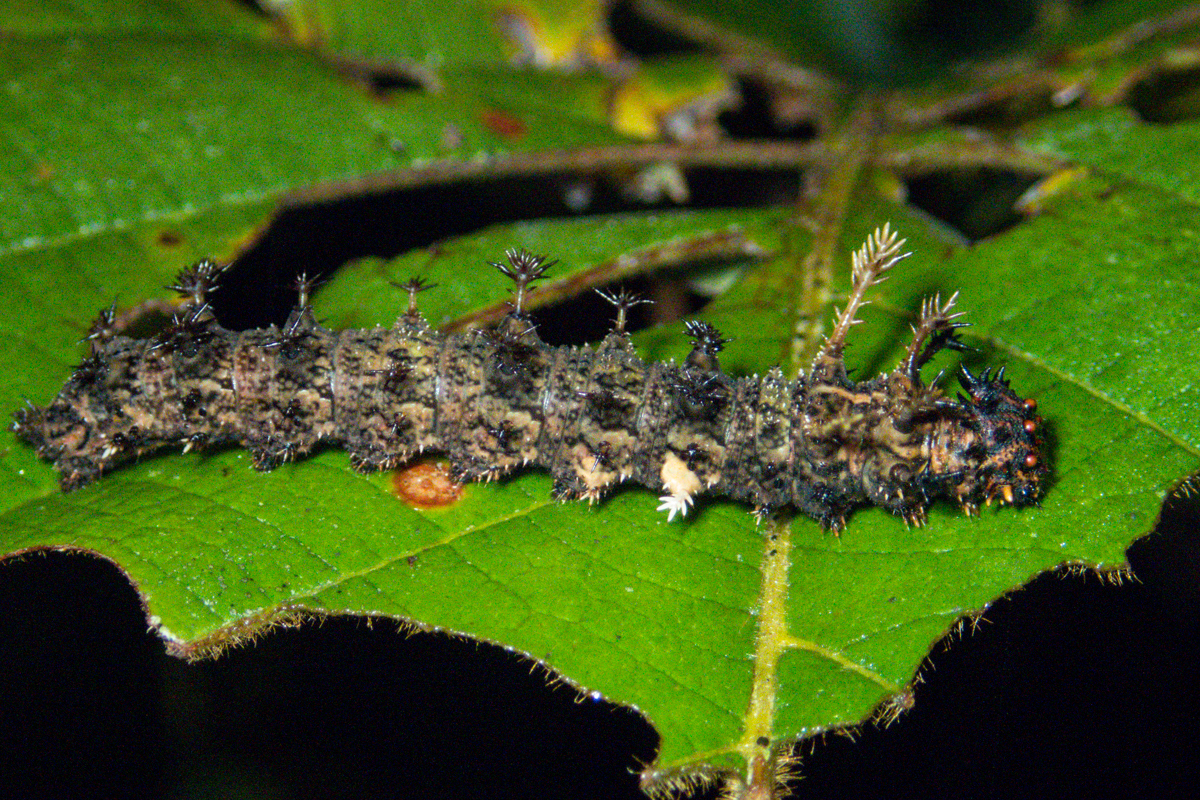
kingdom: Animalia
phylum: Arthropoda
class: Insecta
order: Lepidoptera
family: Nymphalidae
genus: Limenitis
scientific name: Limenitis Moduza procris
